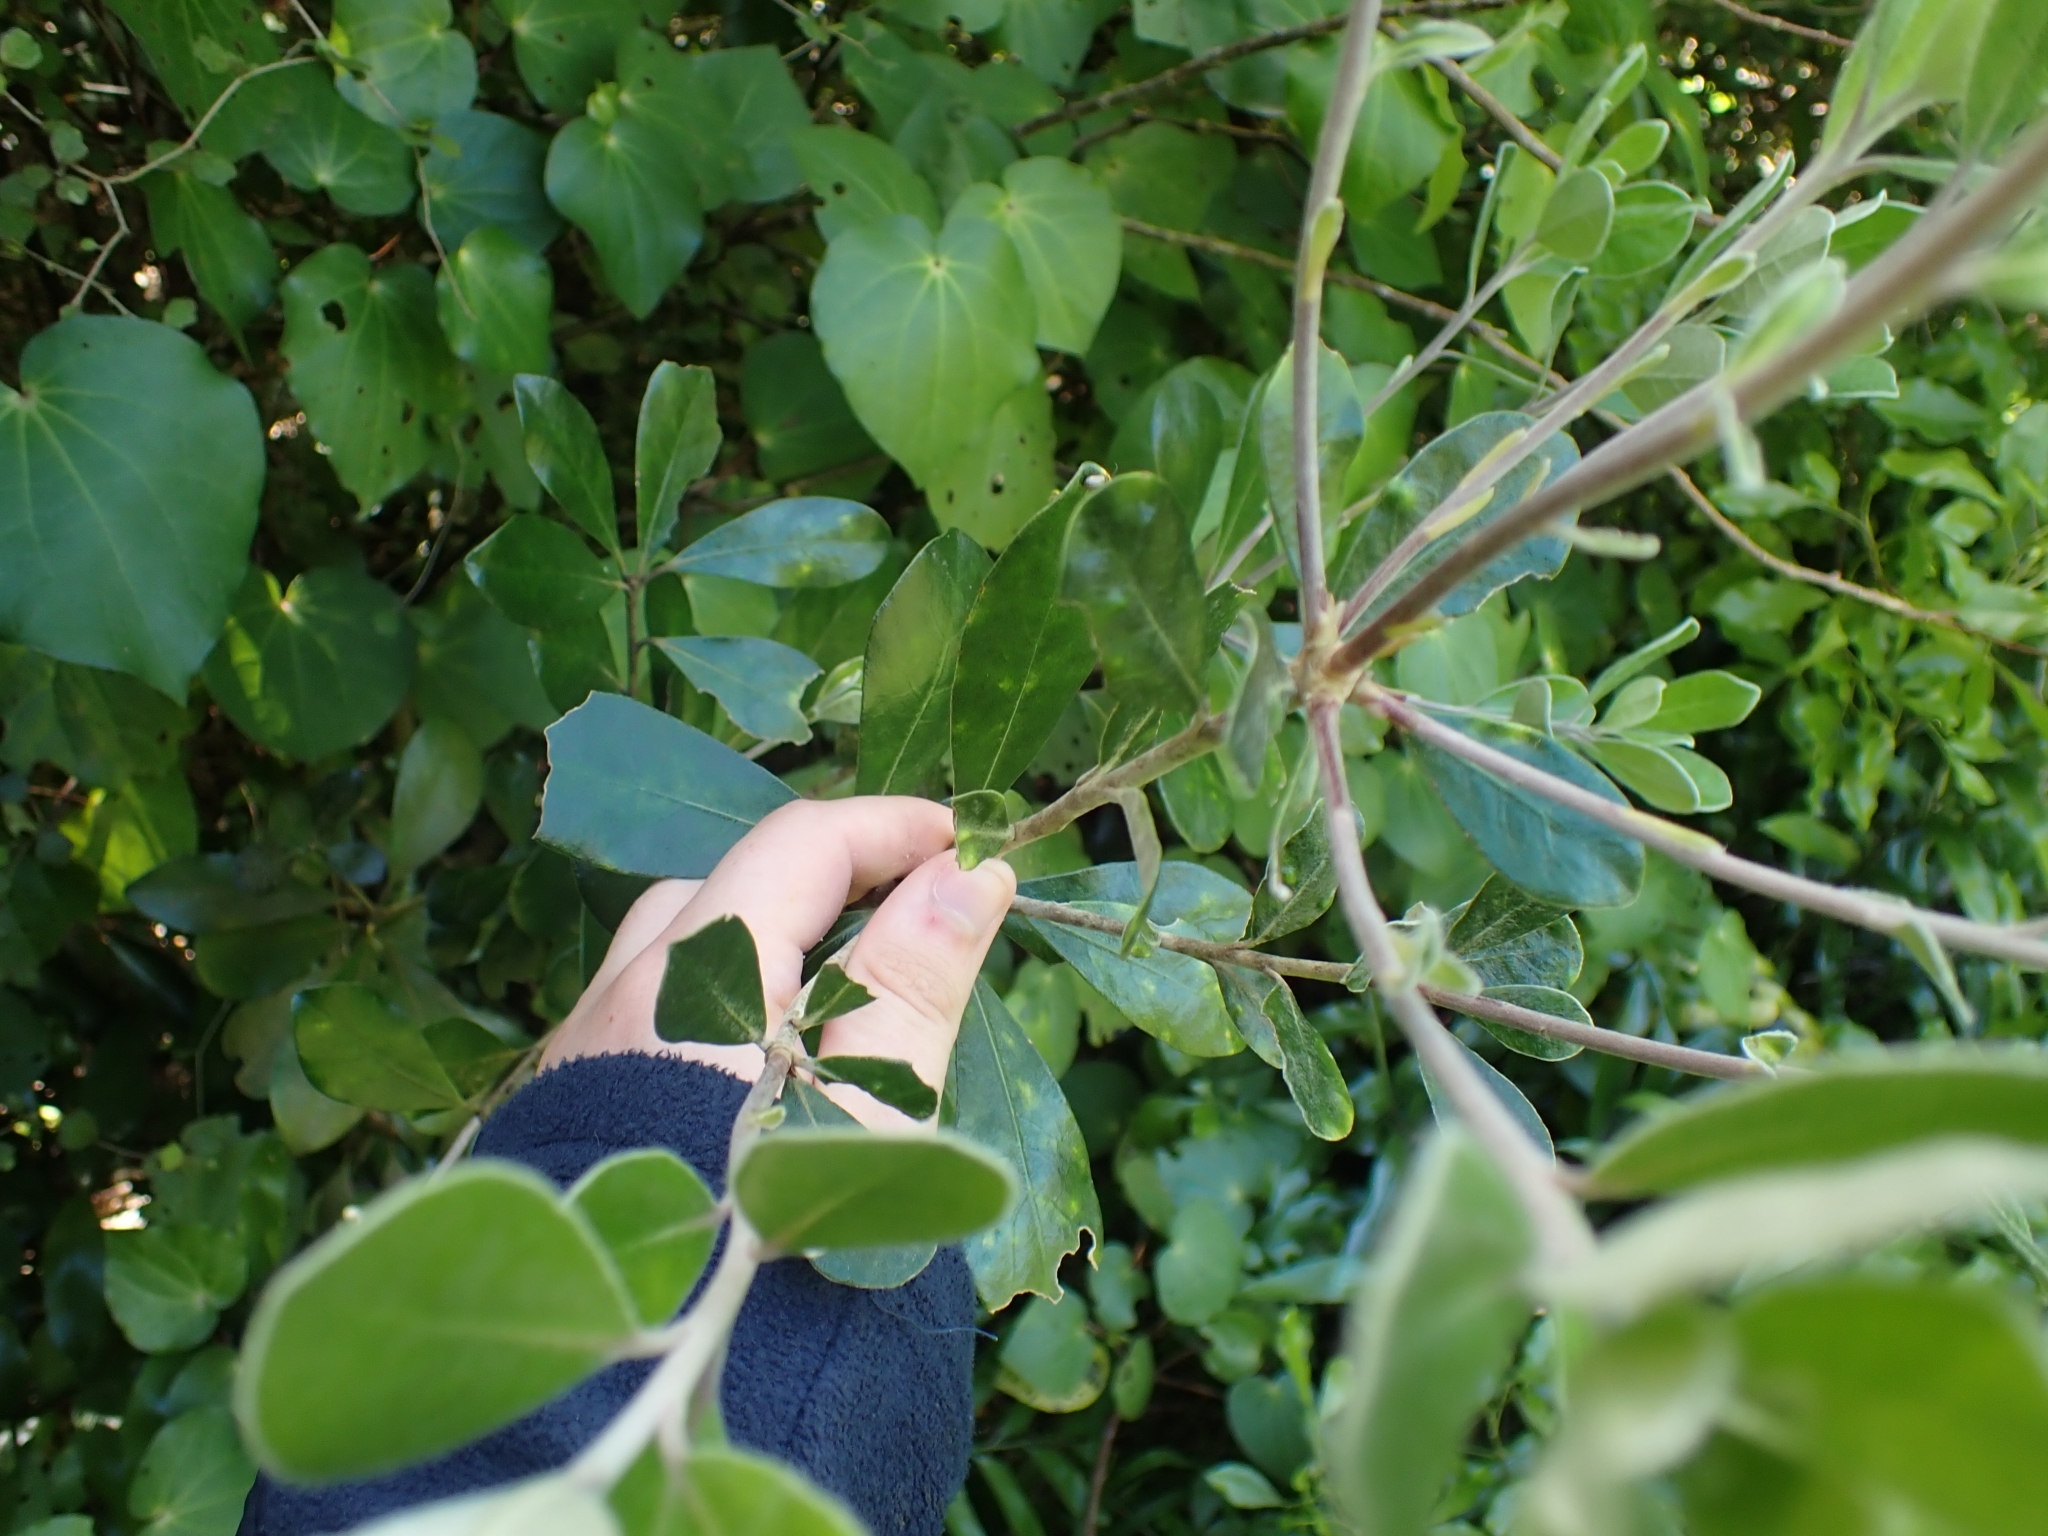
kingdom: Plantae
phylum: Tracheophyta
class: Magnoliopsida
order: Apiales
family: Pittosporaceae
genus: Pittosporum
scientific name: Pittosporum crassifolium
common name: Karo
